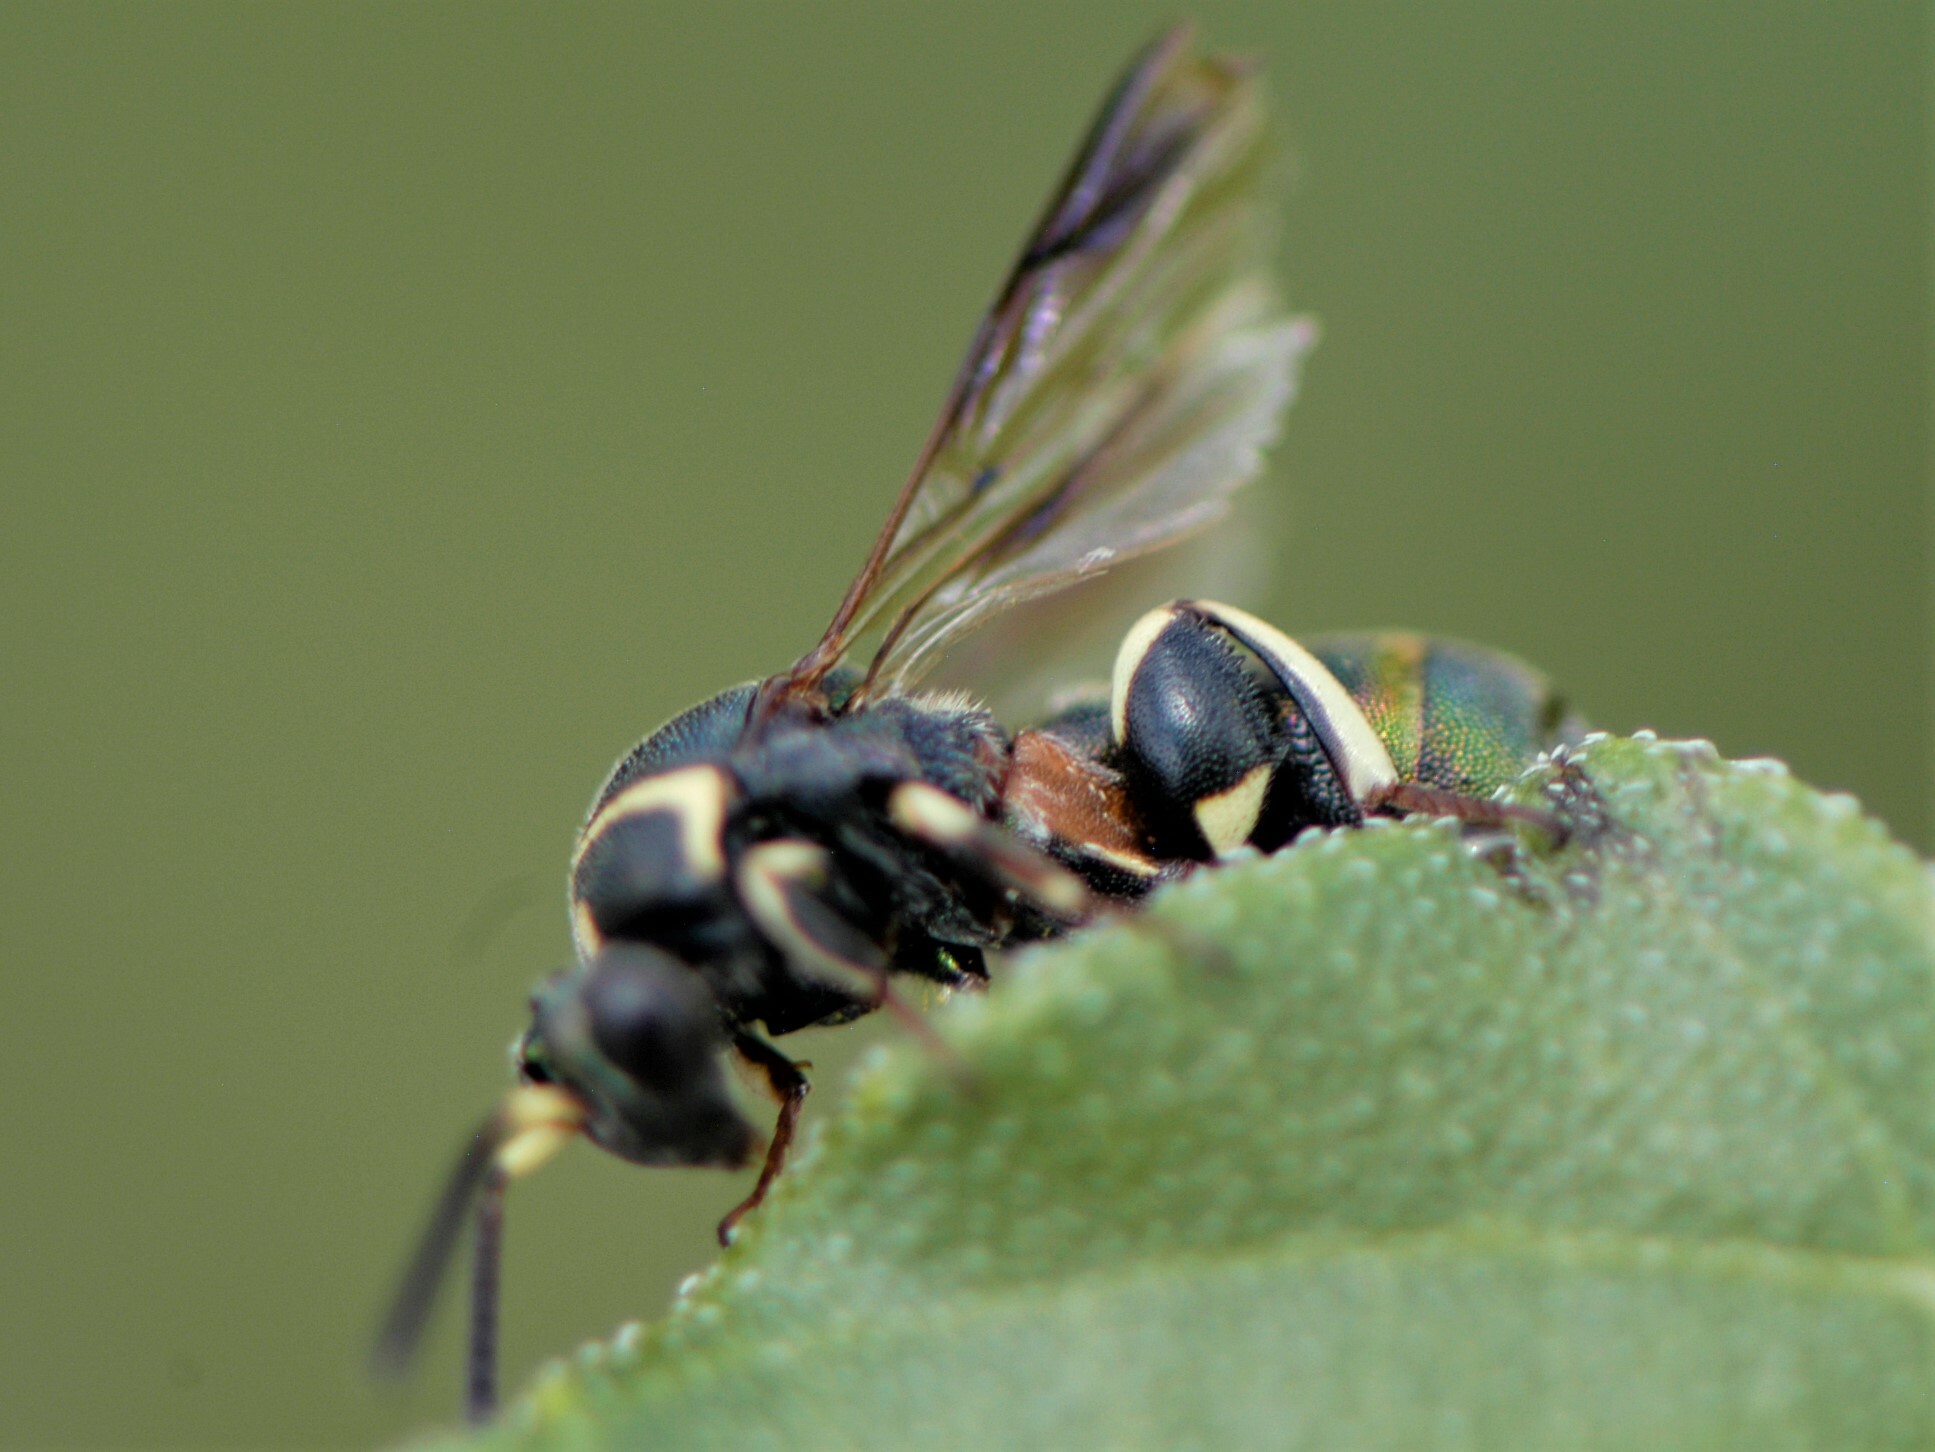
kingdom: Animalia
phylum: Arthropoda
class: Insecta
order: Hymenoptera
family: Leucospidae
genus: Leucospis
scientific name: Leucospis birkmani
